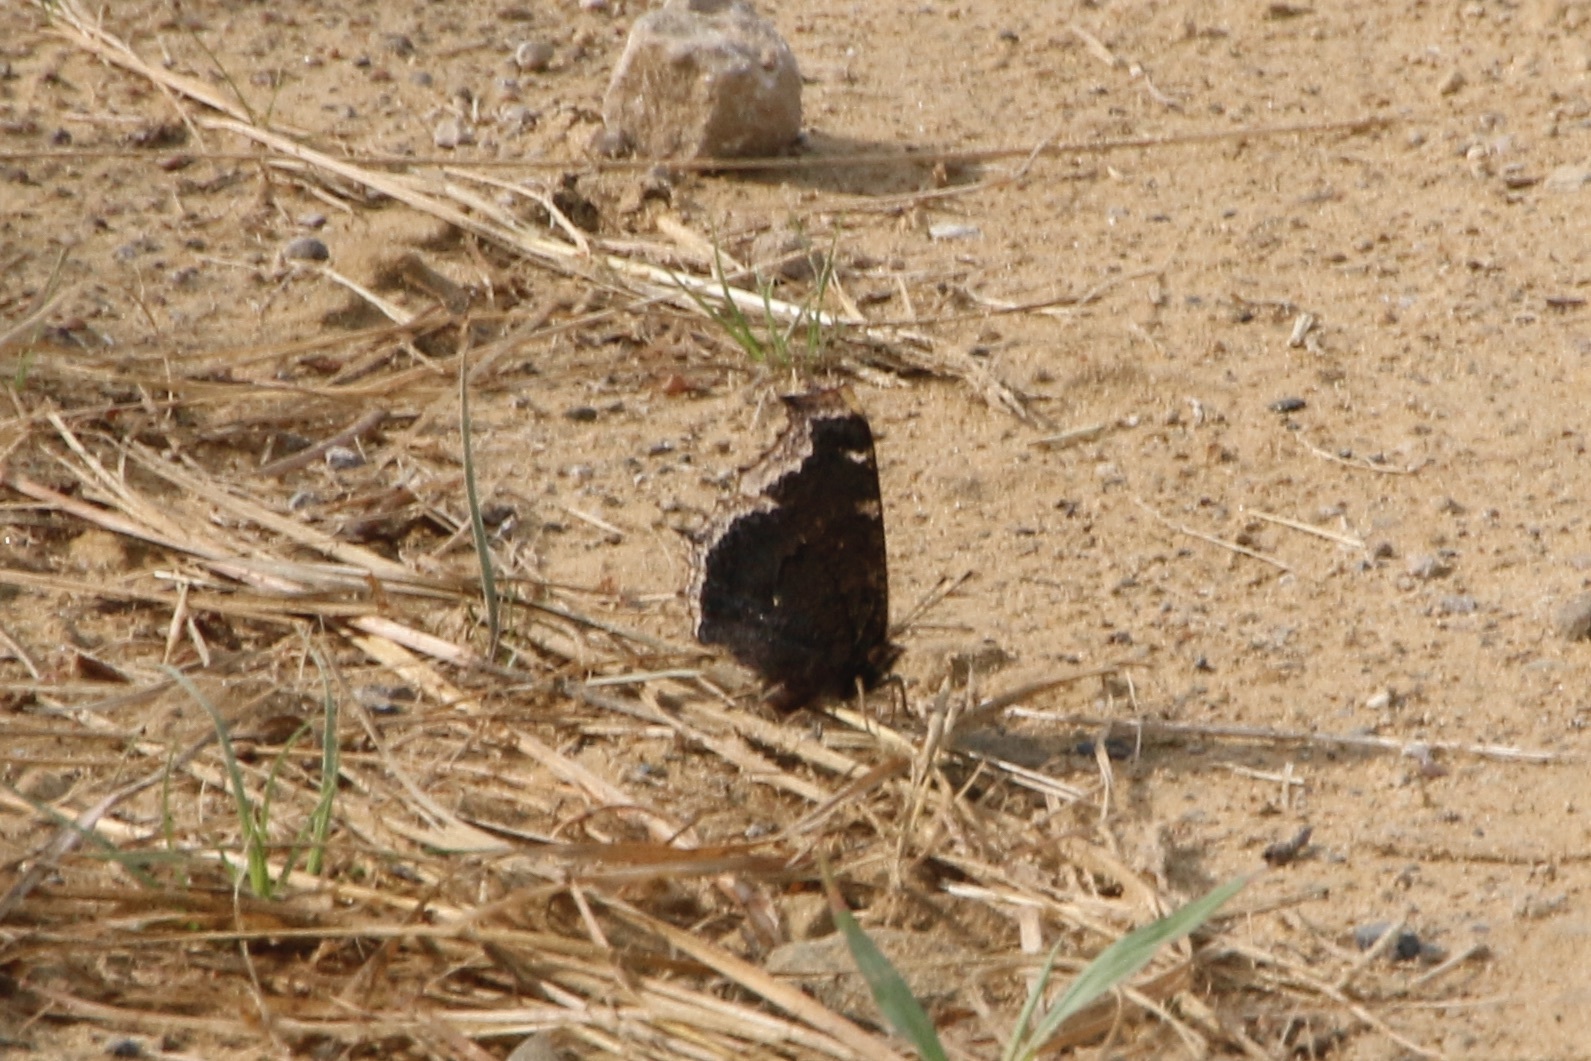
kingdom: Animalia
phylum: Arthropoda
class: Insecta
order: Lepidoptera
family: Nymphalidae
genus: Nymphalis
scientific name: Nymphalis antiopa
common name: Camberwell beauty
